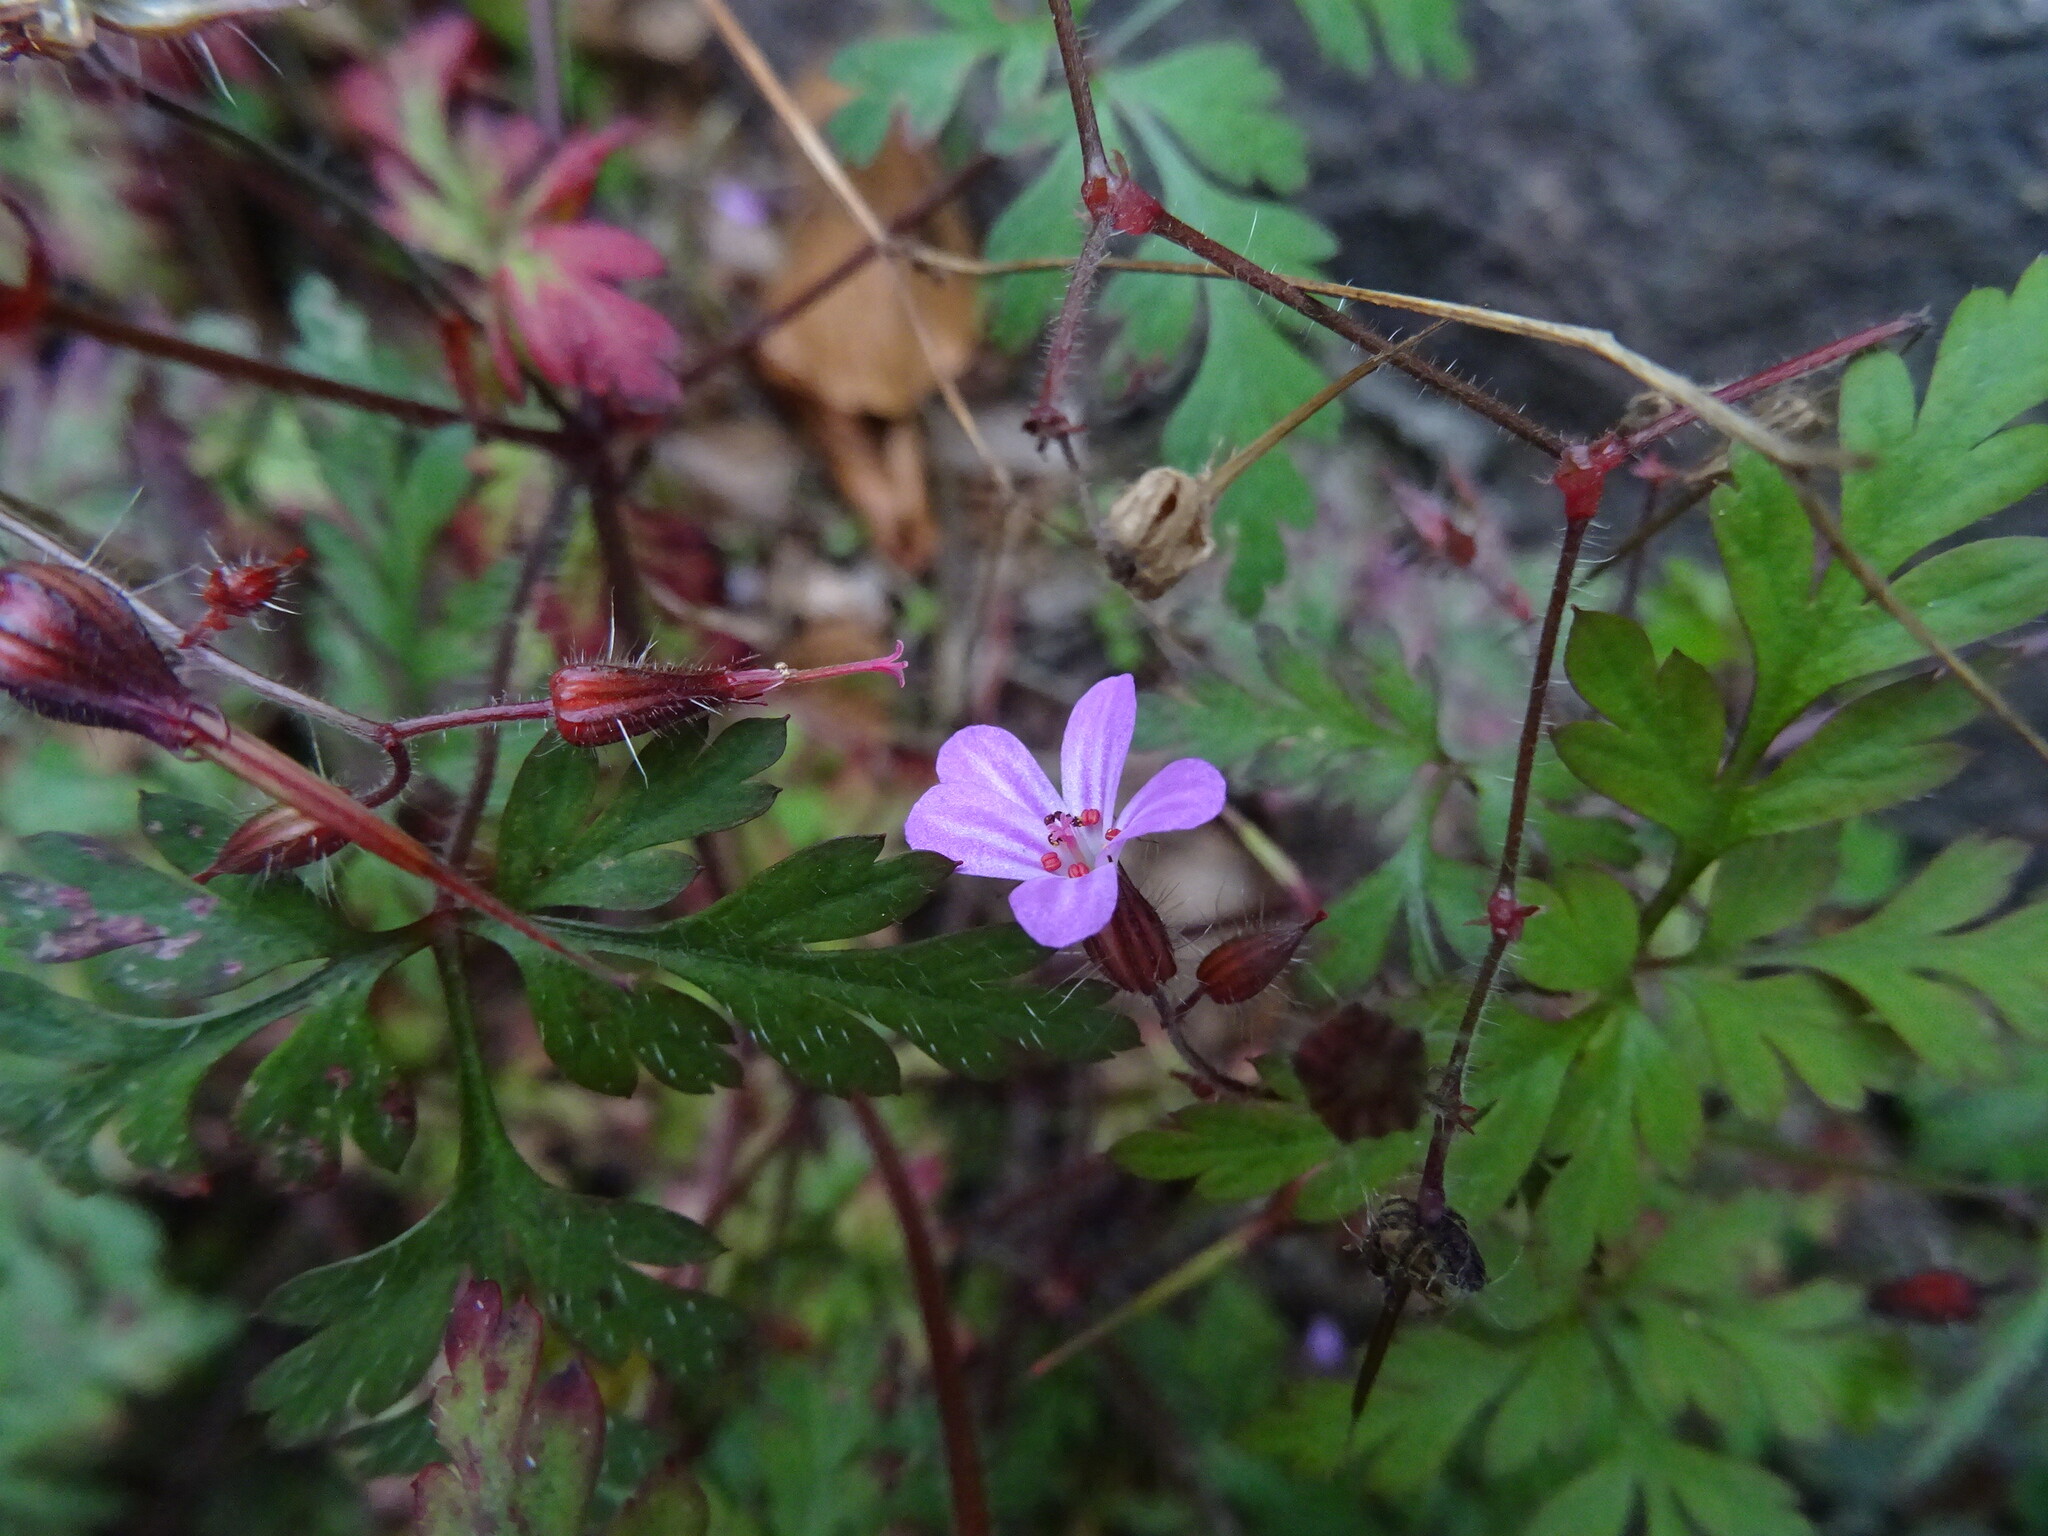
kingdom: Plantae
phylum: Tracheophyta
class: Magnoliopsida
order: Geraniales
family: Geraniaceae
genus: Geranium
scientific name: Geranium robertianum
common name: Herb-robert
